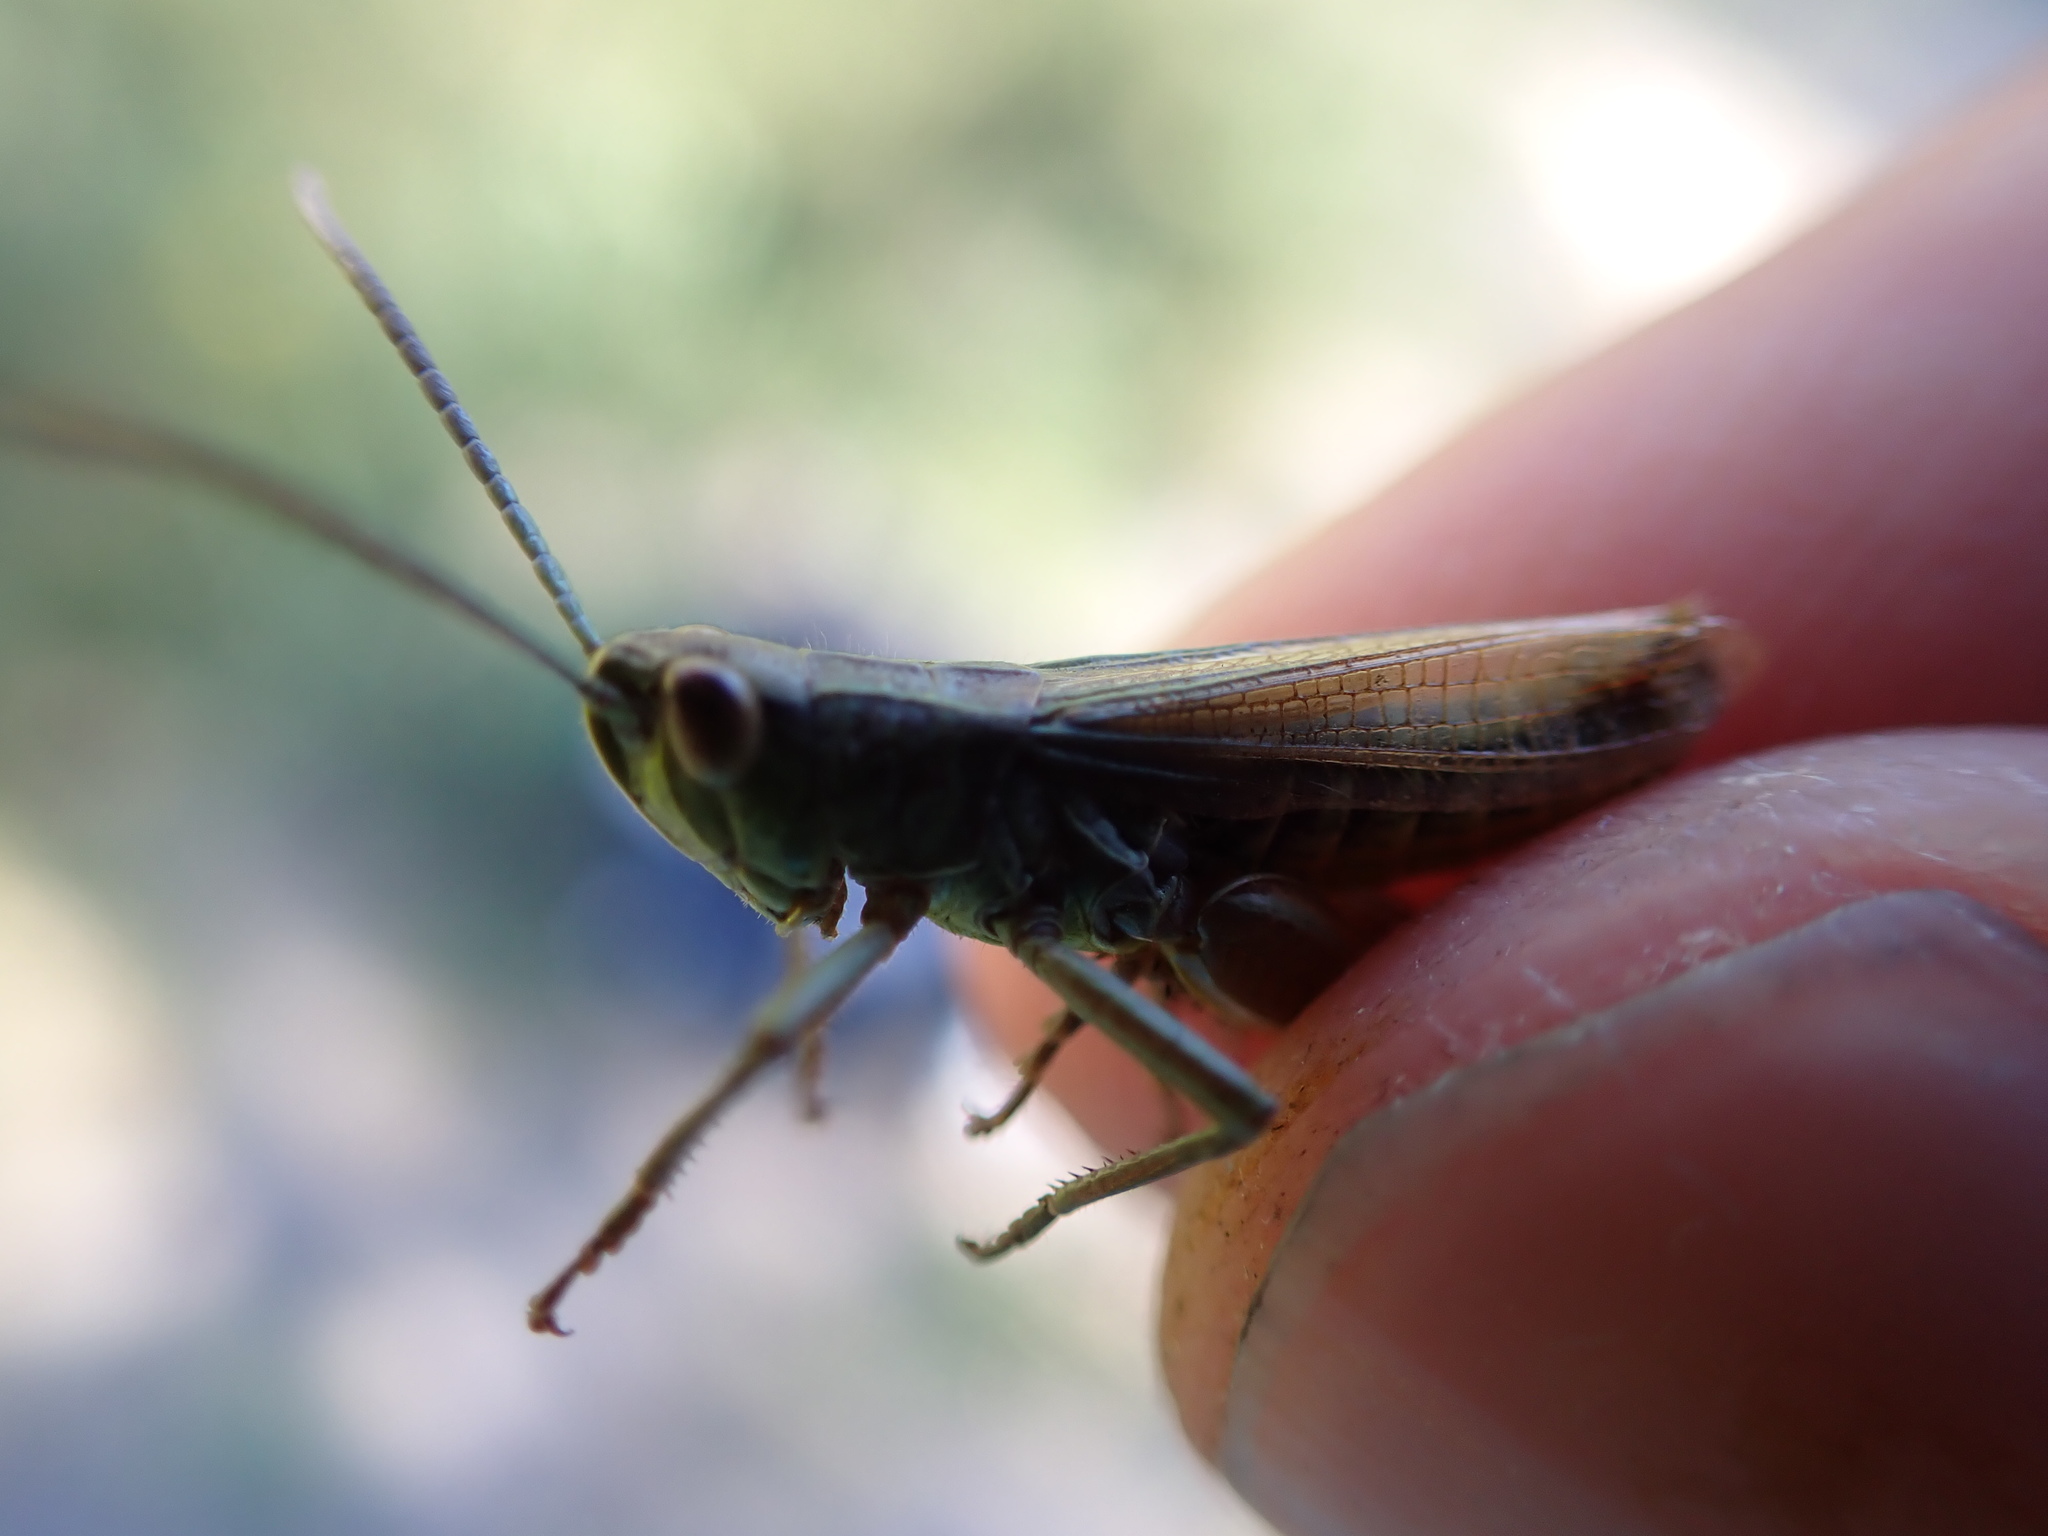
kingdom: Animalia
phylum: Arthropoda
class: Insecta
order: Orthoptera
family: Acrididae
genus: Pseudochorthippus
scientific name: Pseudochorthippus parallelus
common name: Meadow grasshopper
